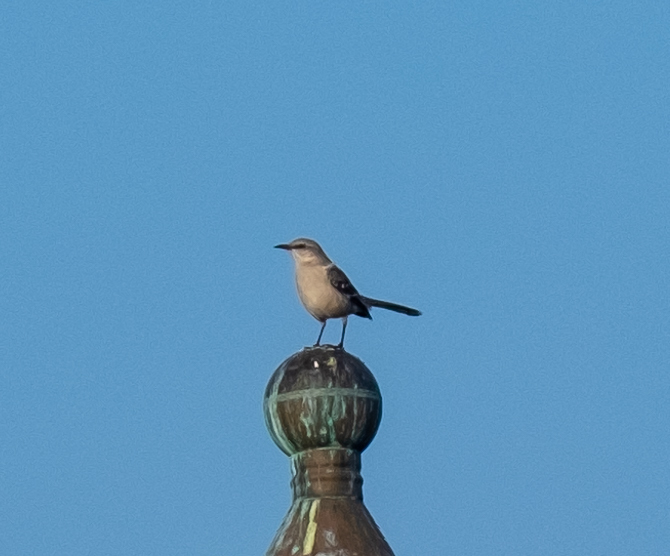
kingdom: Animalia
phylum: Chordata
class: Aves
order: Passeriformes
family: Mimidae
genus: Mimus
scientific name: Mimus polyglottos
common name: Northern mockingbird
